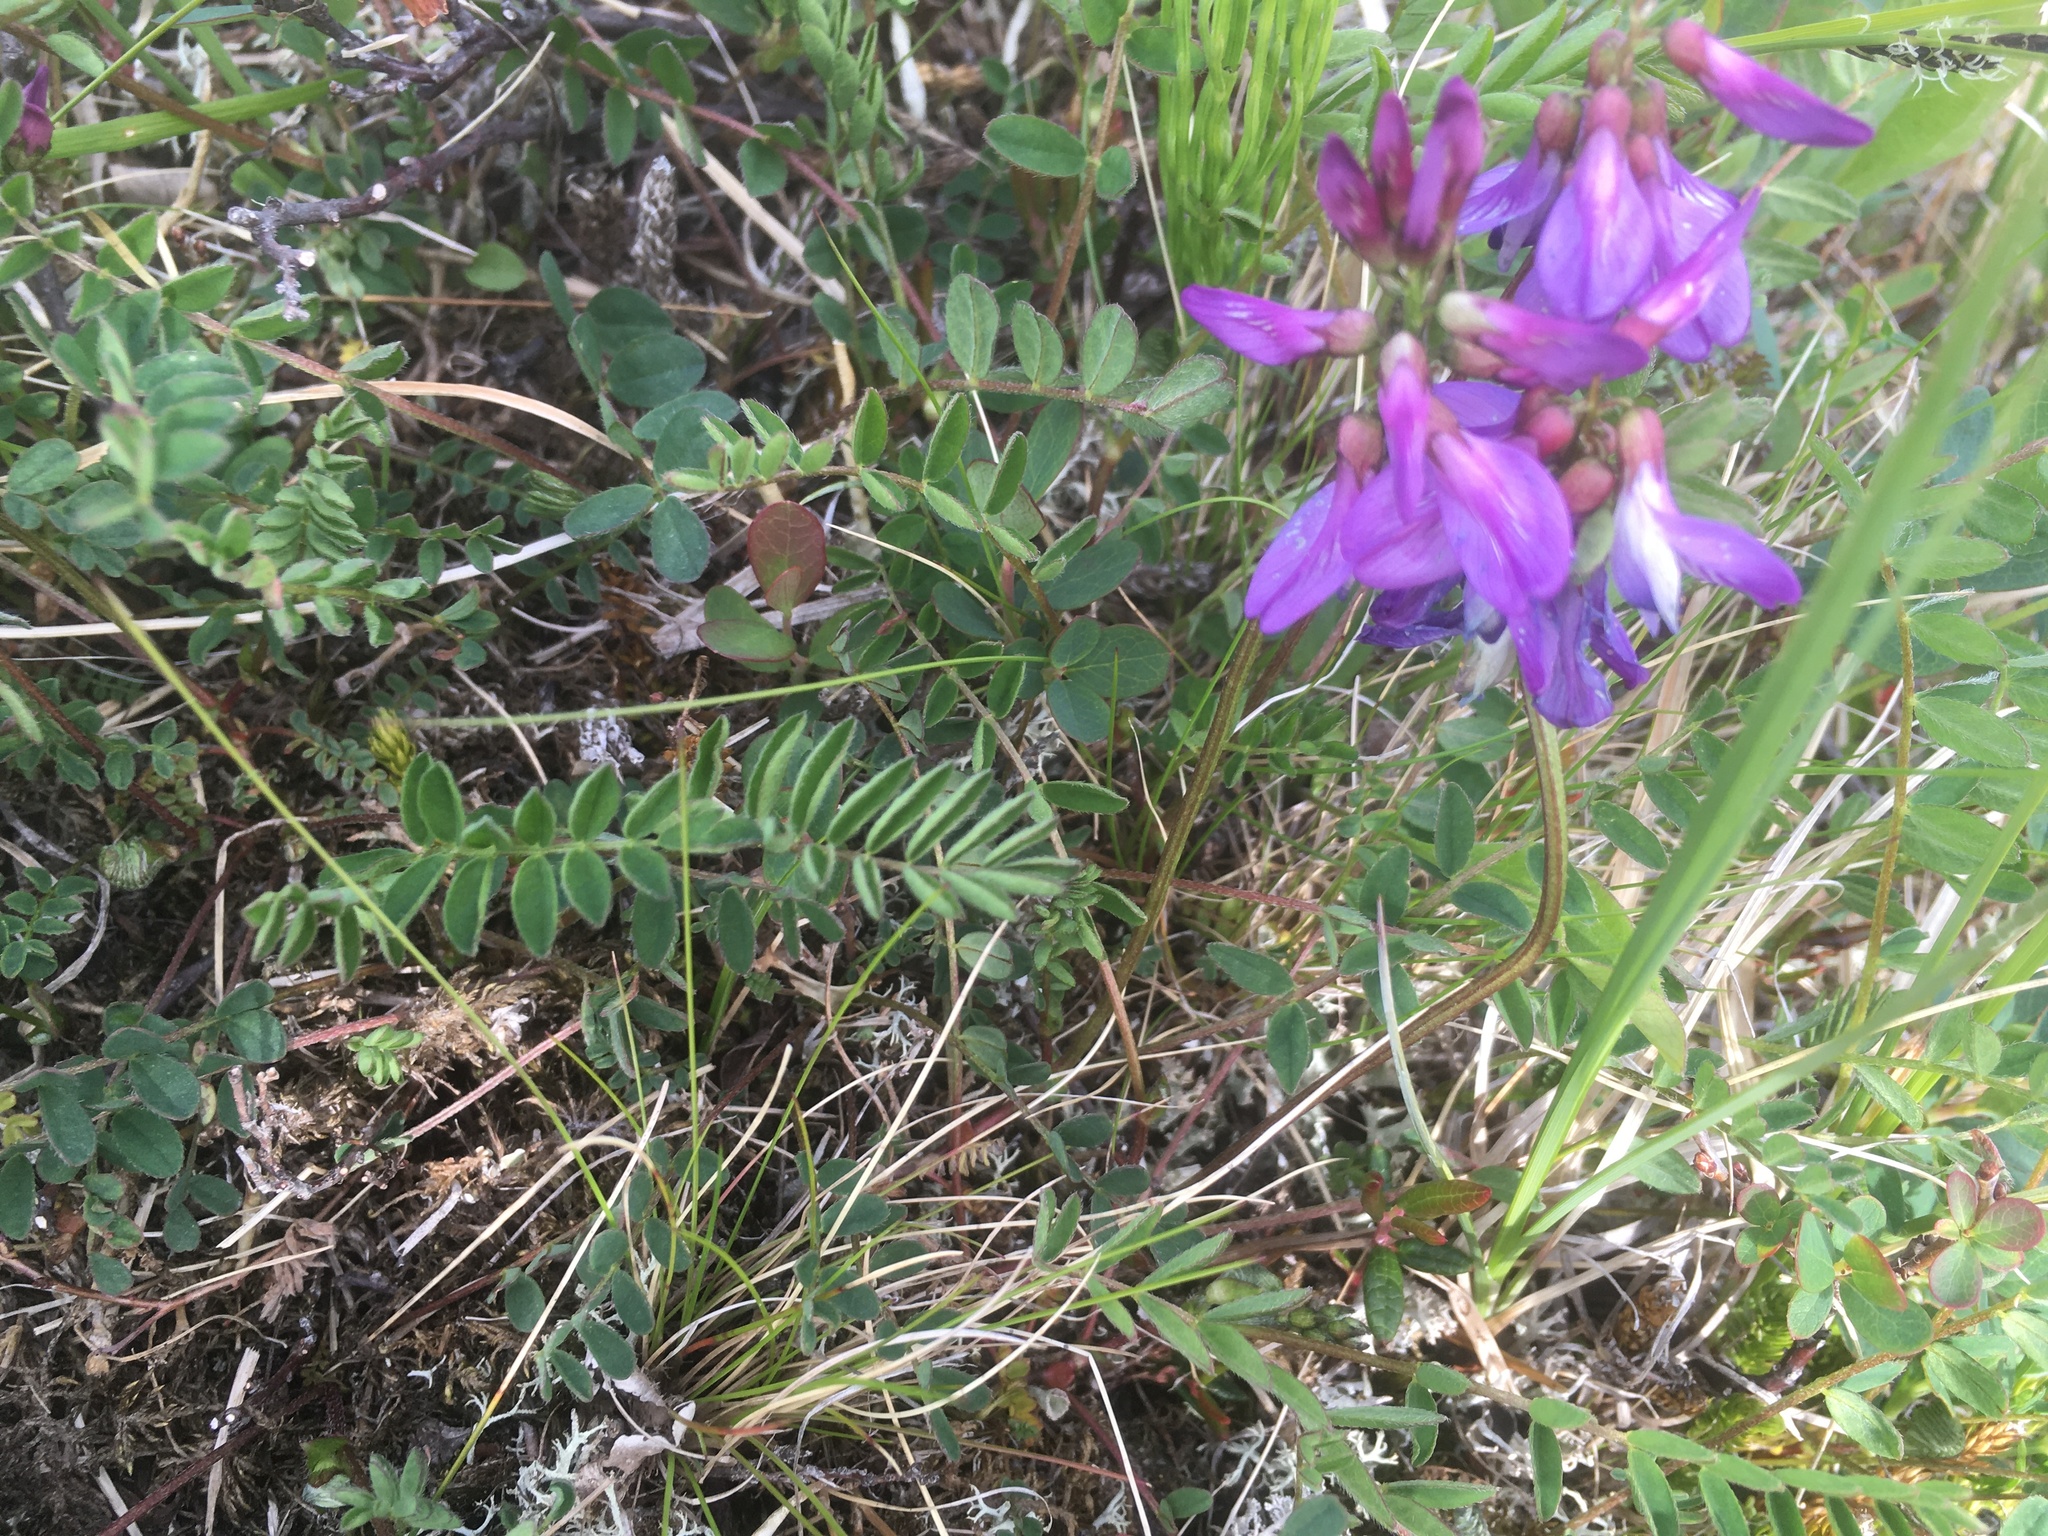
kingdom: Plantae
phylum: Tracheophyta
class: Magnoliopsida
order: Fabales
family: Fabaceae
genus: Astragalus
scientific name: Astragalus alpinus
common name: Alpine milk-vetch
